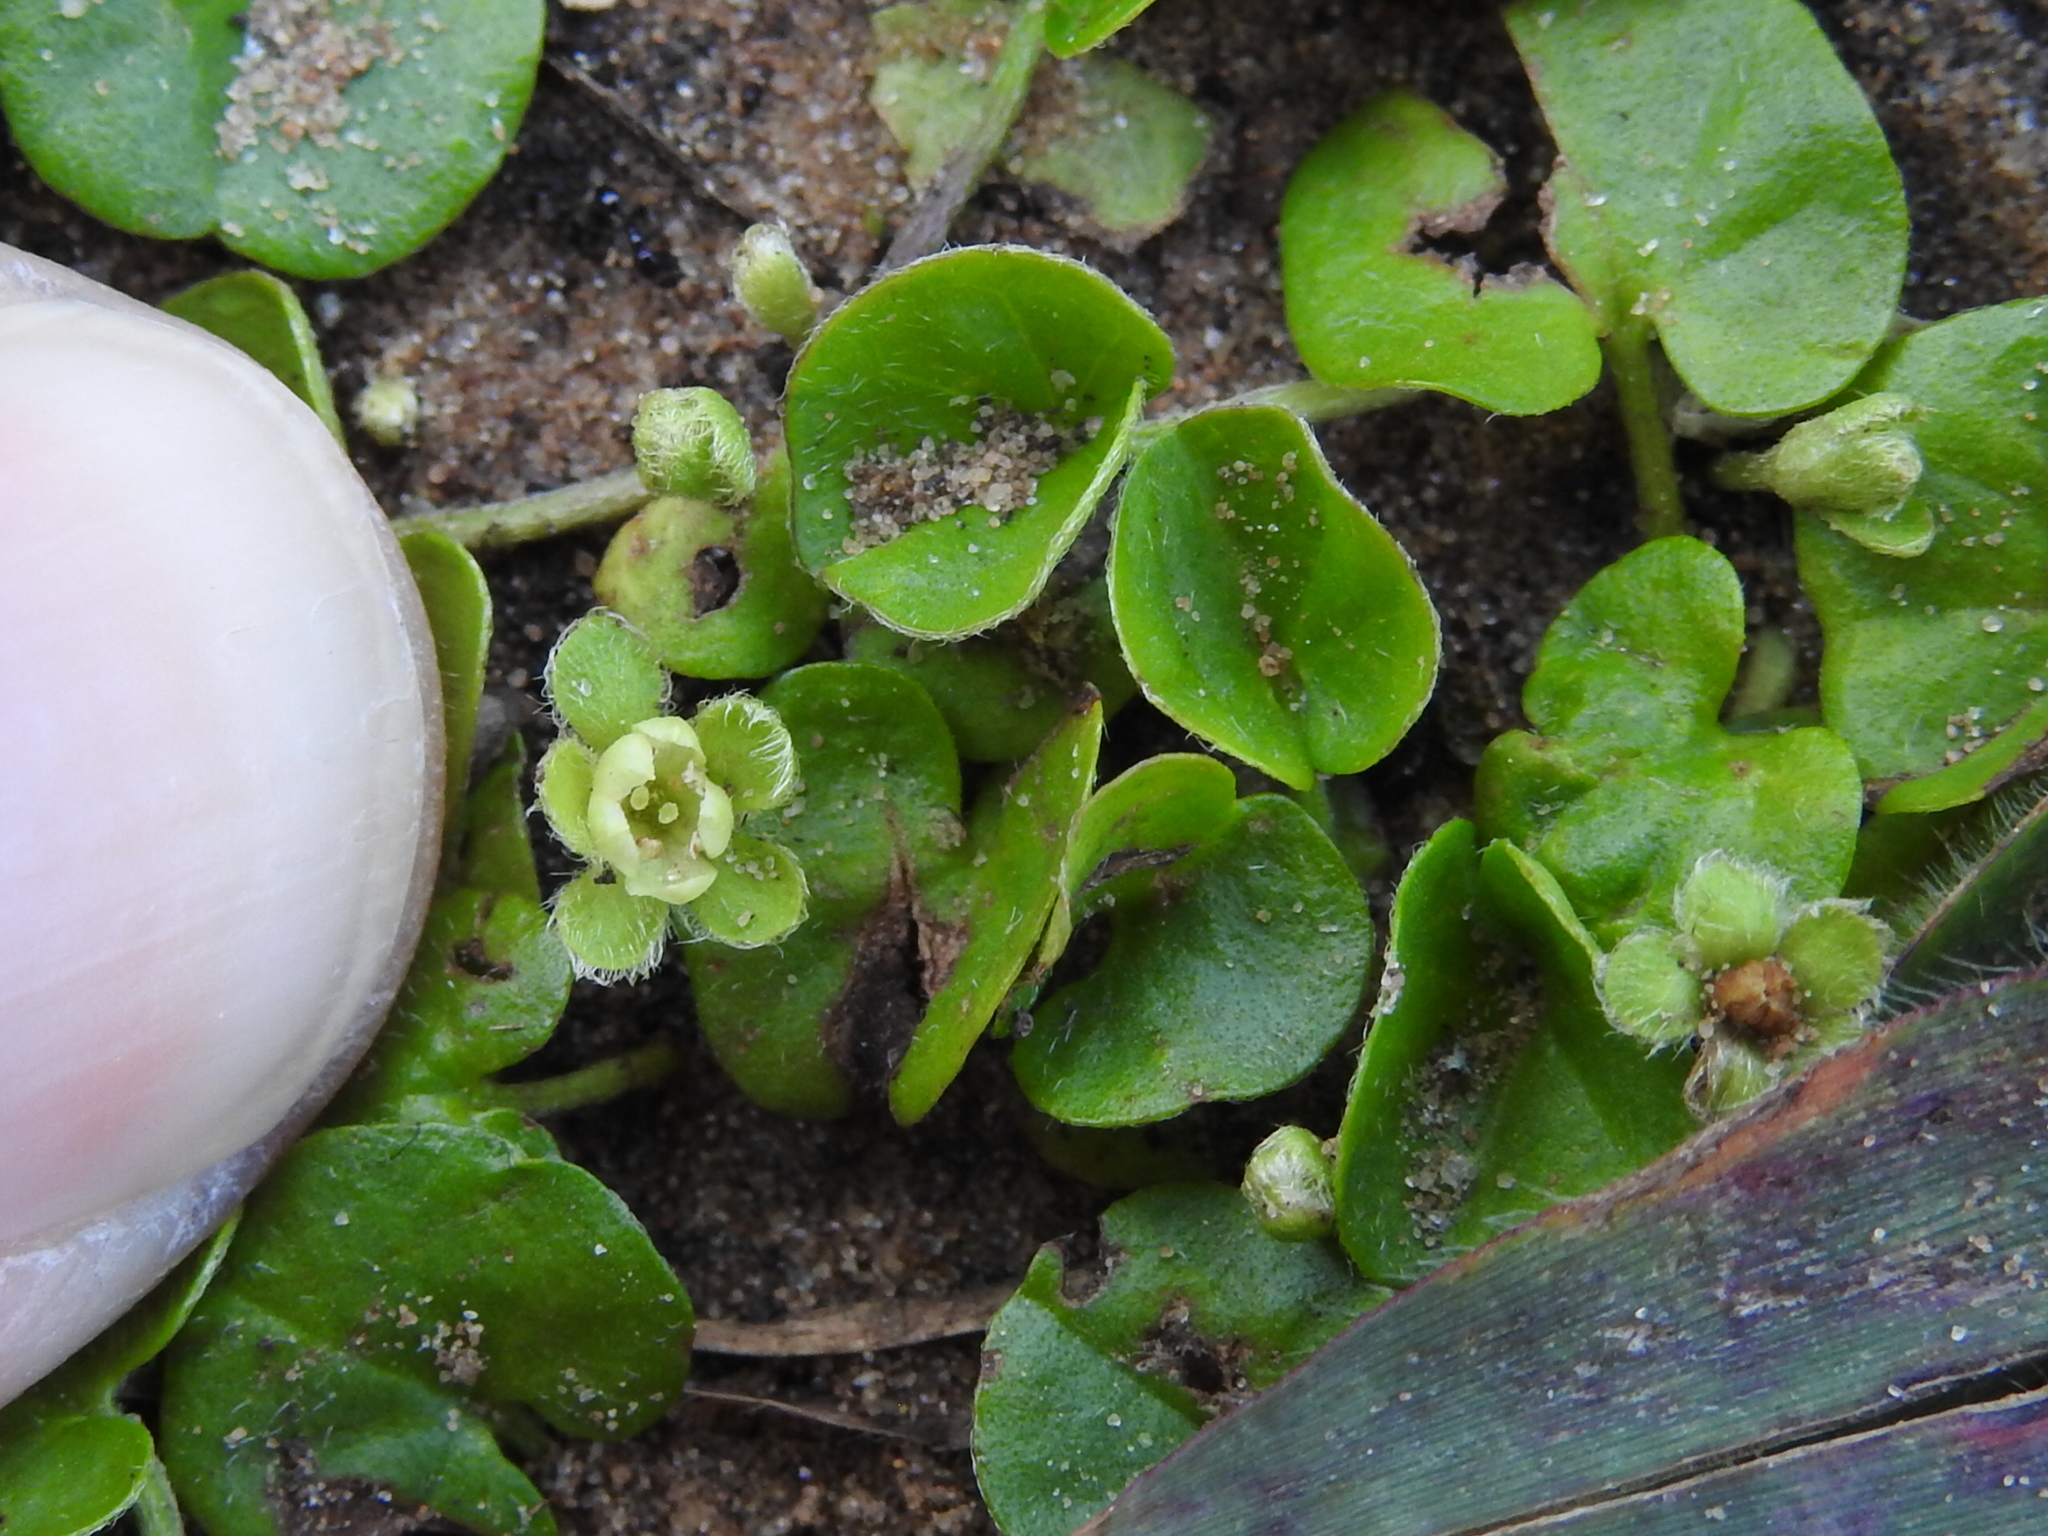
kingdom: Plantae
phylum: Tracheophyta
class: Magnoliopsida
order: Solanales
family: Convolvulaceae
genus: Dichondra
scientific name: Dichondra carolinensis
